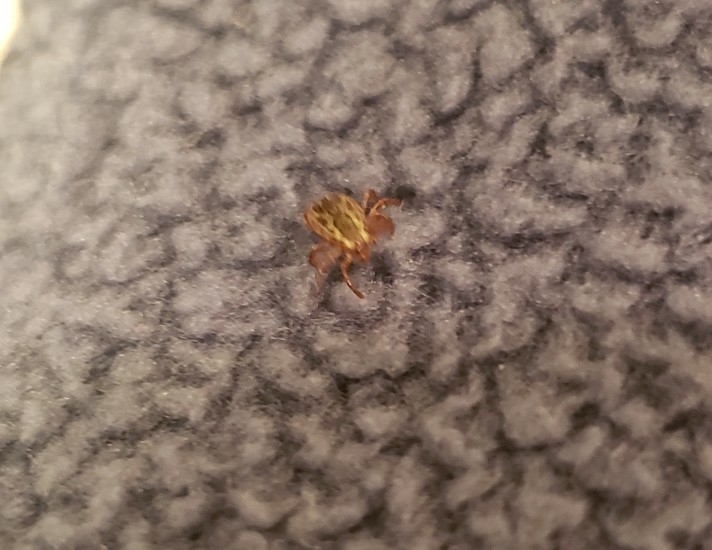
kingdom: Animalia
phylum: Arthropoda
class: Arachnida
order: Ixodida
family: Ixodidae
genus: Dermacentor
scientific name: Dermacentor variabilis
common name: American dog tick
